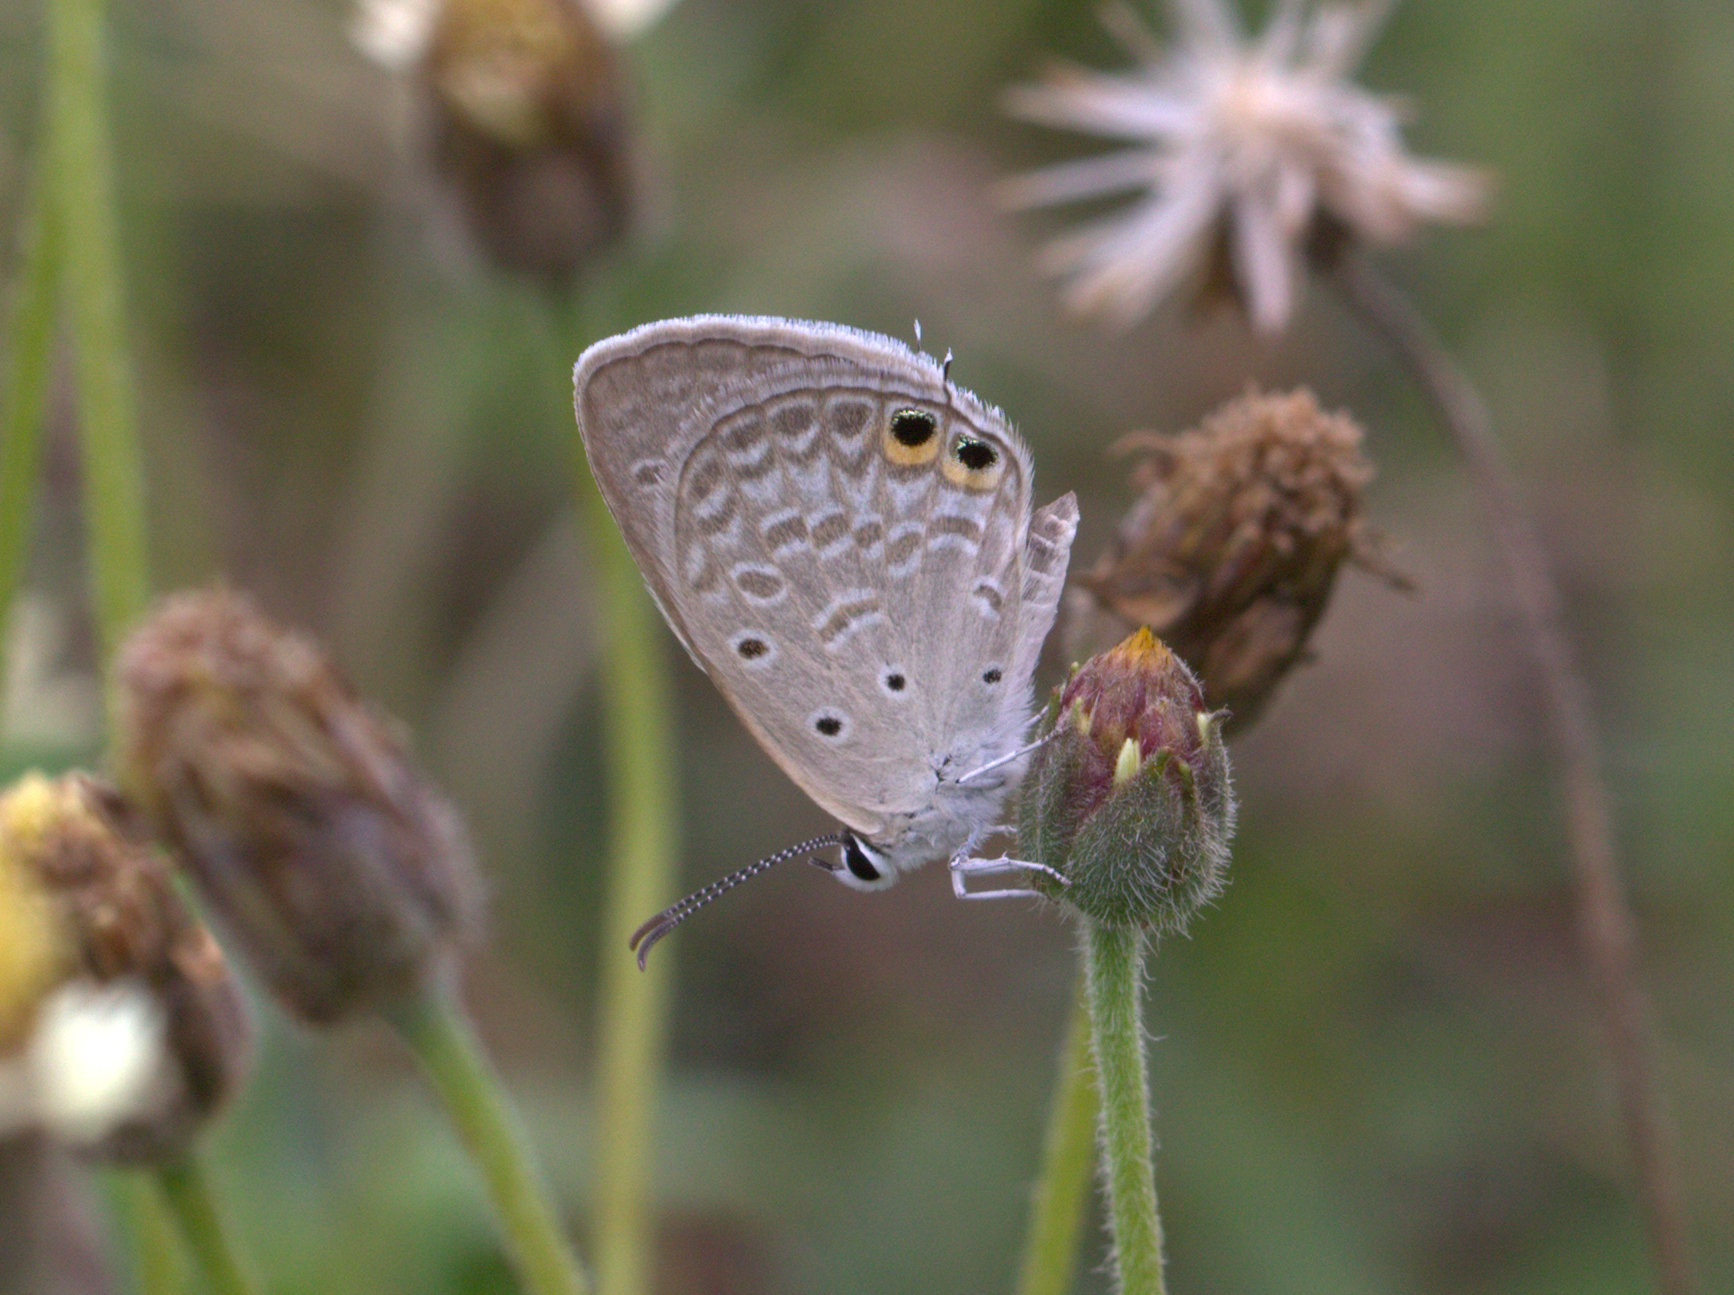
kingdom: Animalia
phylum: Arthropoda
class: Insecta
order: Lepidoptera
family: Lycaenidae
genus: Euchrysops
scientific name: Euchrysops cnejus
